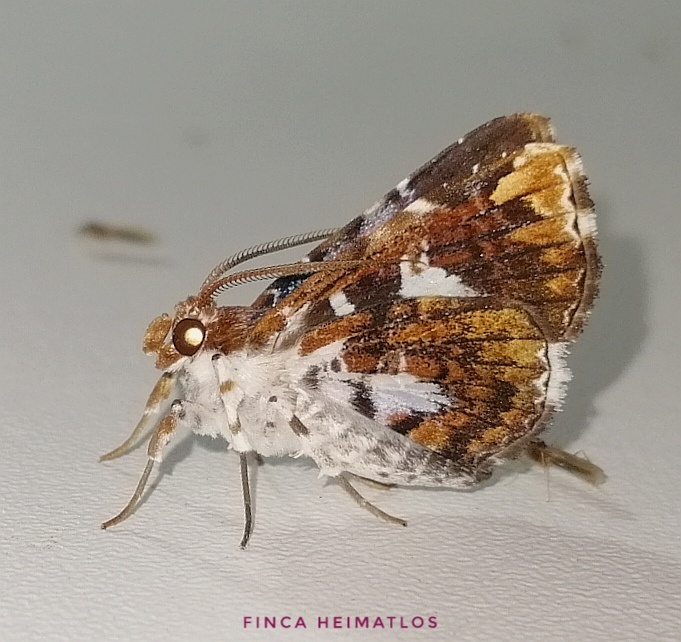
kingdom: Animalia
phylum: Arthropoda
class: Insecta
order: Lepidoptera
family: Erebidae
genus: Pseudogerespa
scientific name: Pseudogerespa usipetes
